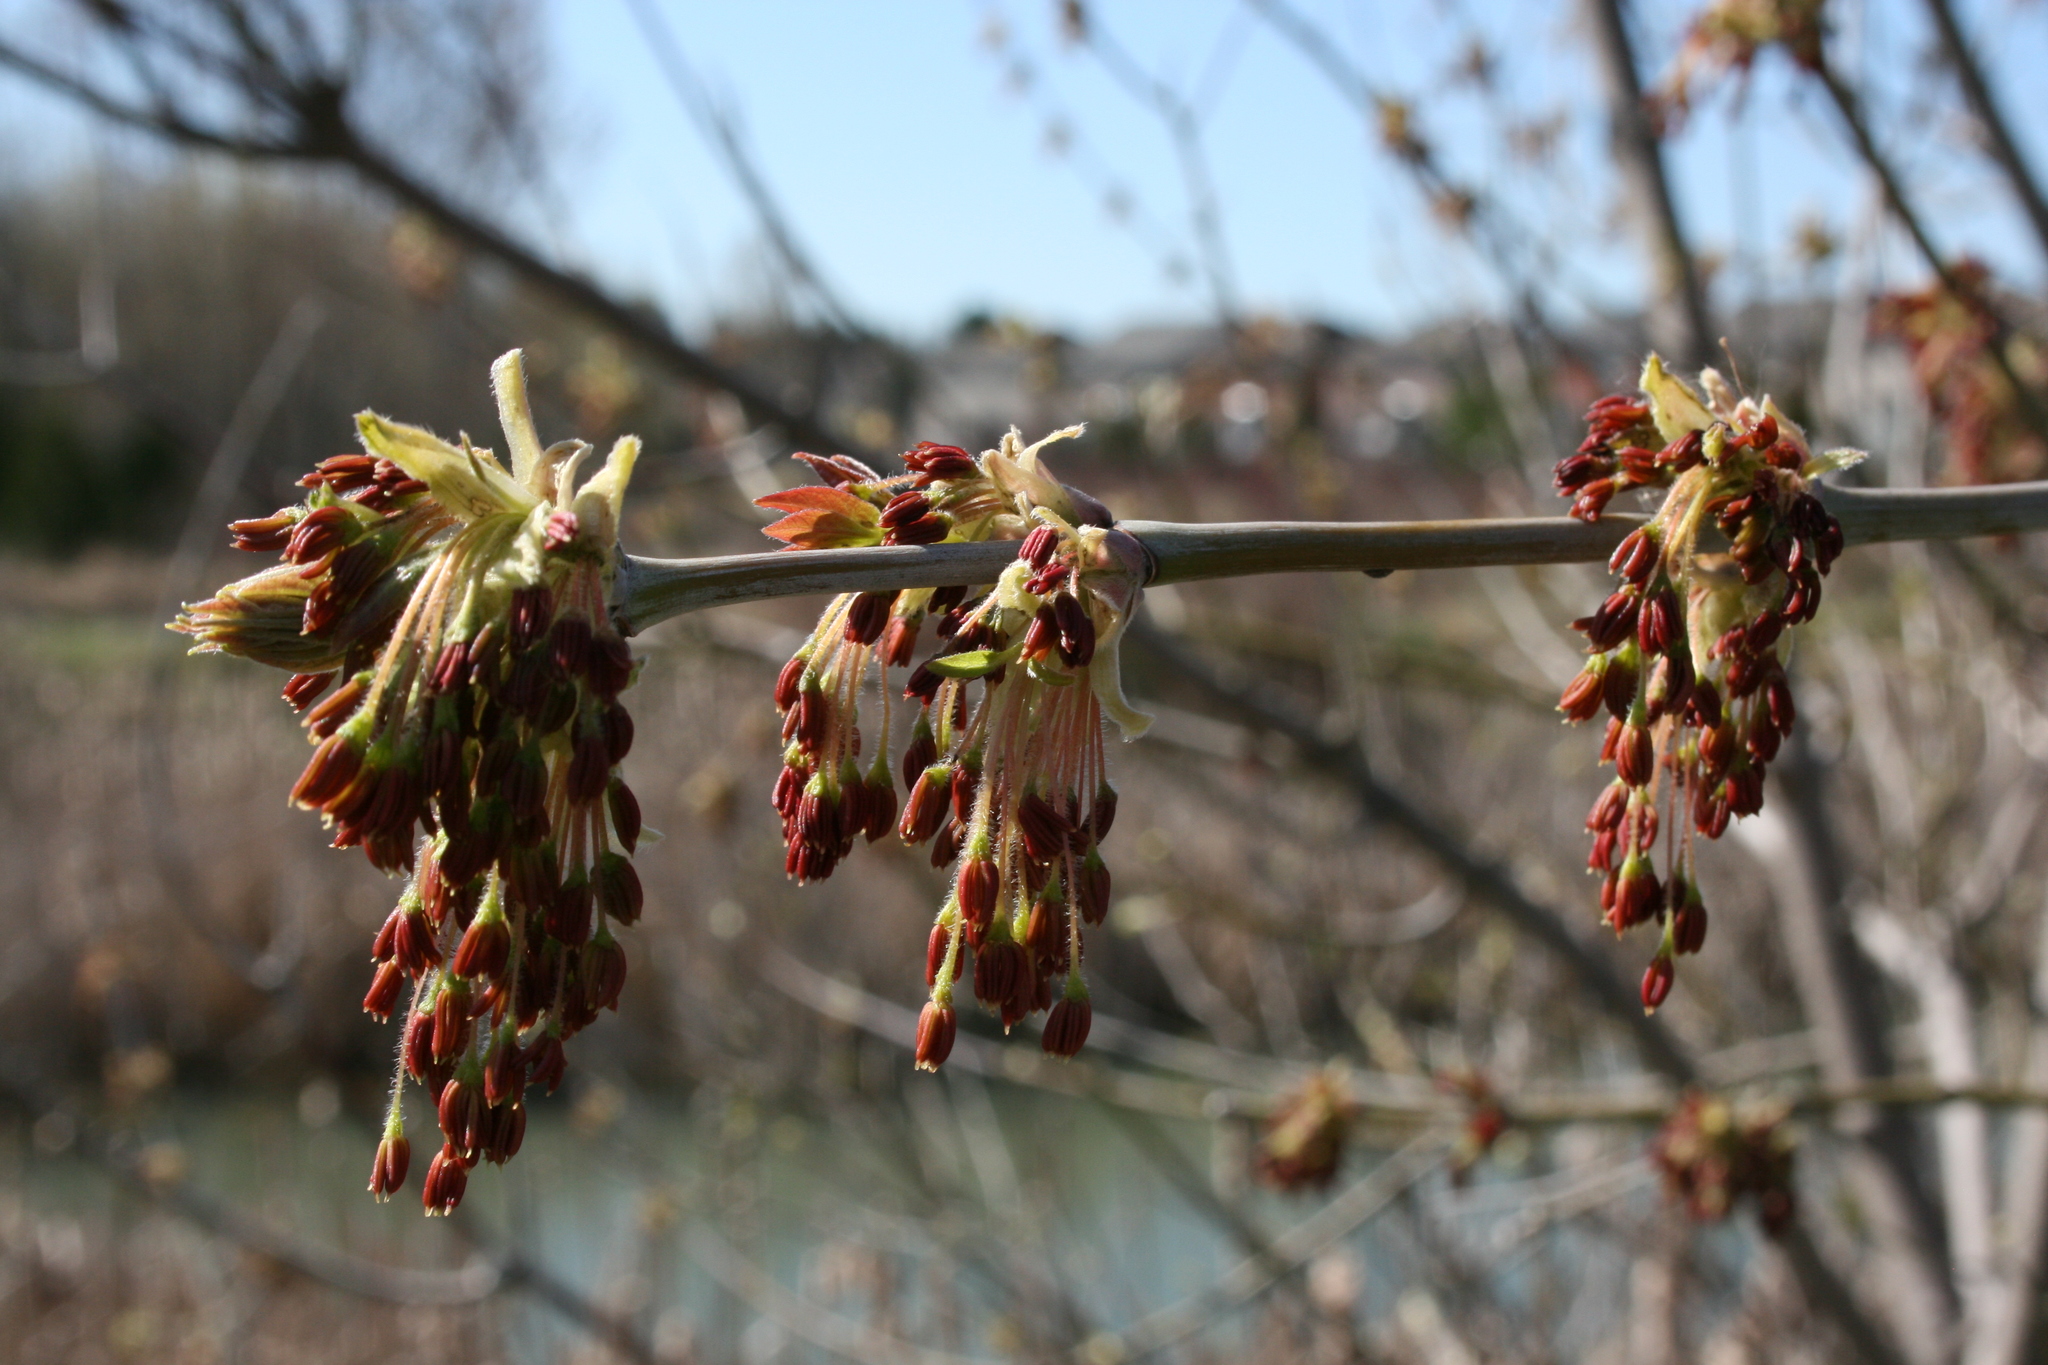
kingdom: Plantae
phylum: Tracheophyta
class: Magnoliopsida
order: Sapindales
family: Sapindaceae
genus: Acer
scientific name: Acer negundo
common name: Ashleaf maple
